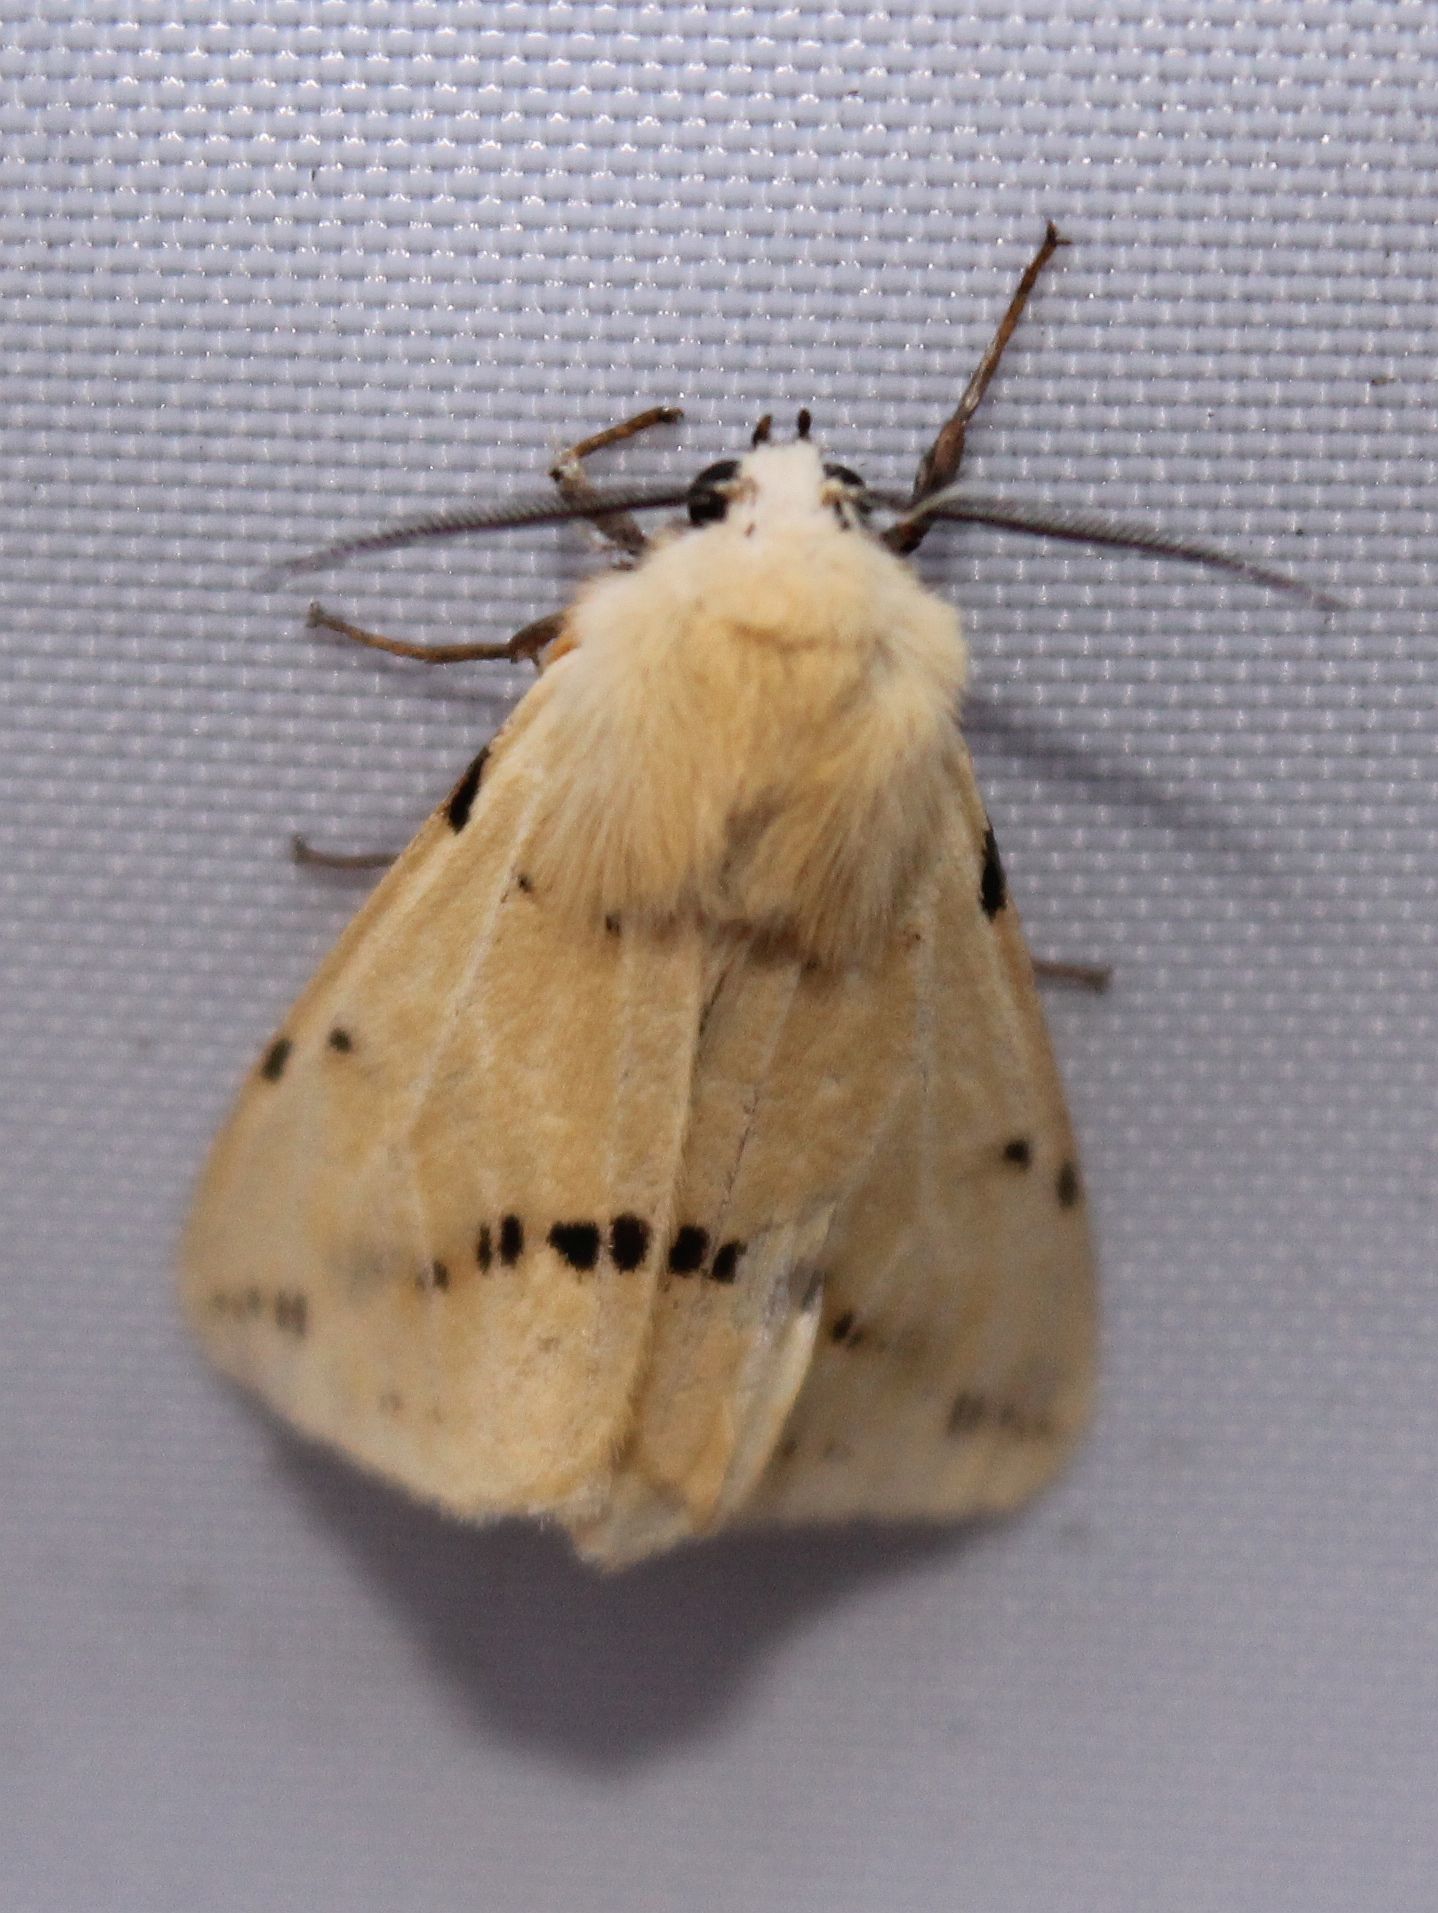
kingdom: Animalia
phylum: Arthropoda
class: Insecta
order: Lepidoptera
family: Erebidae
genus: Spilarctia
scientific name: Spilarctia lutea
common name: Buff ermine
